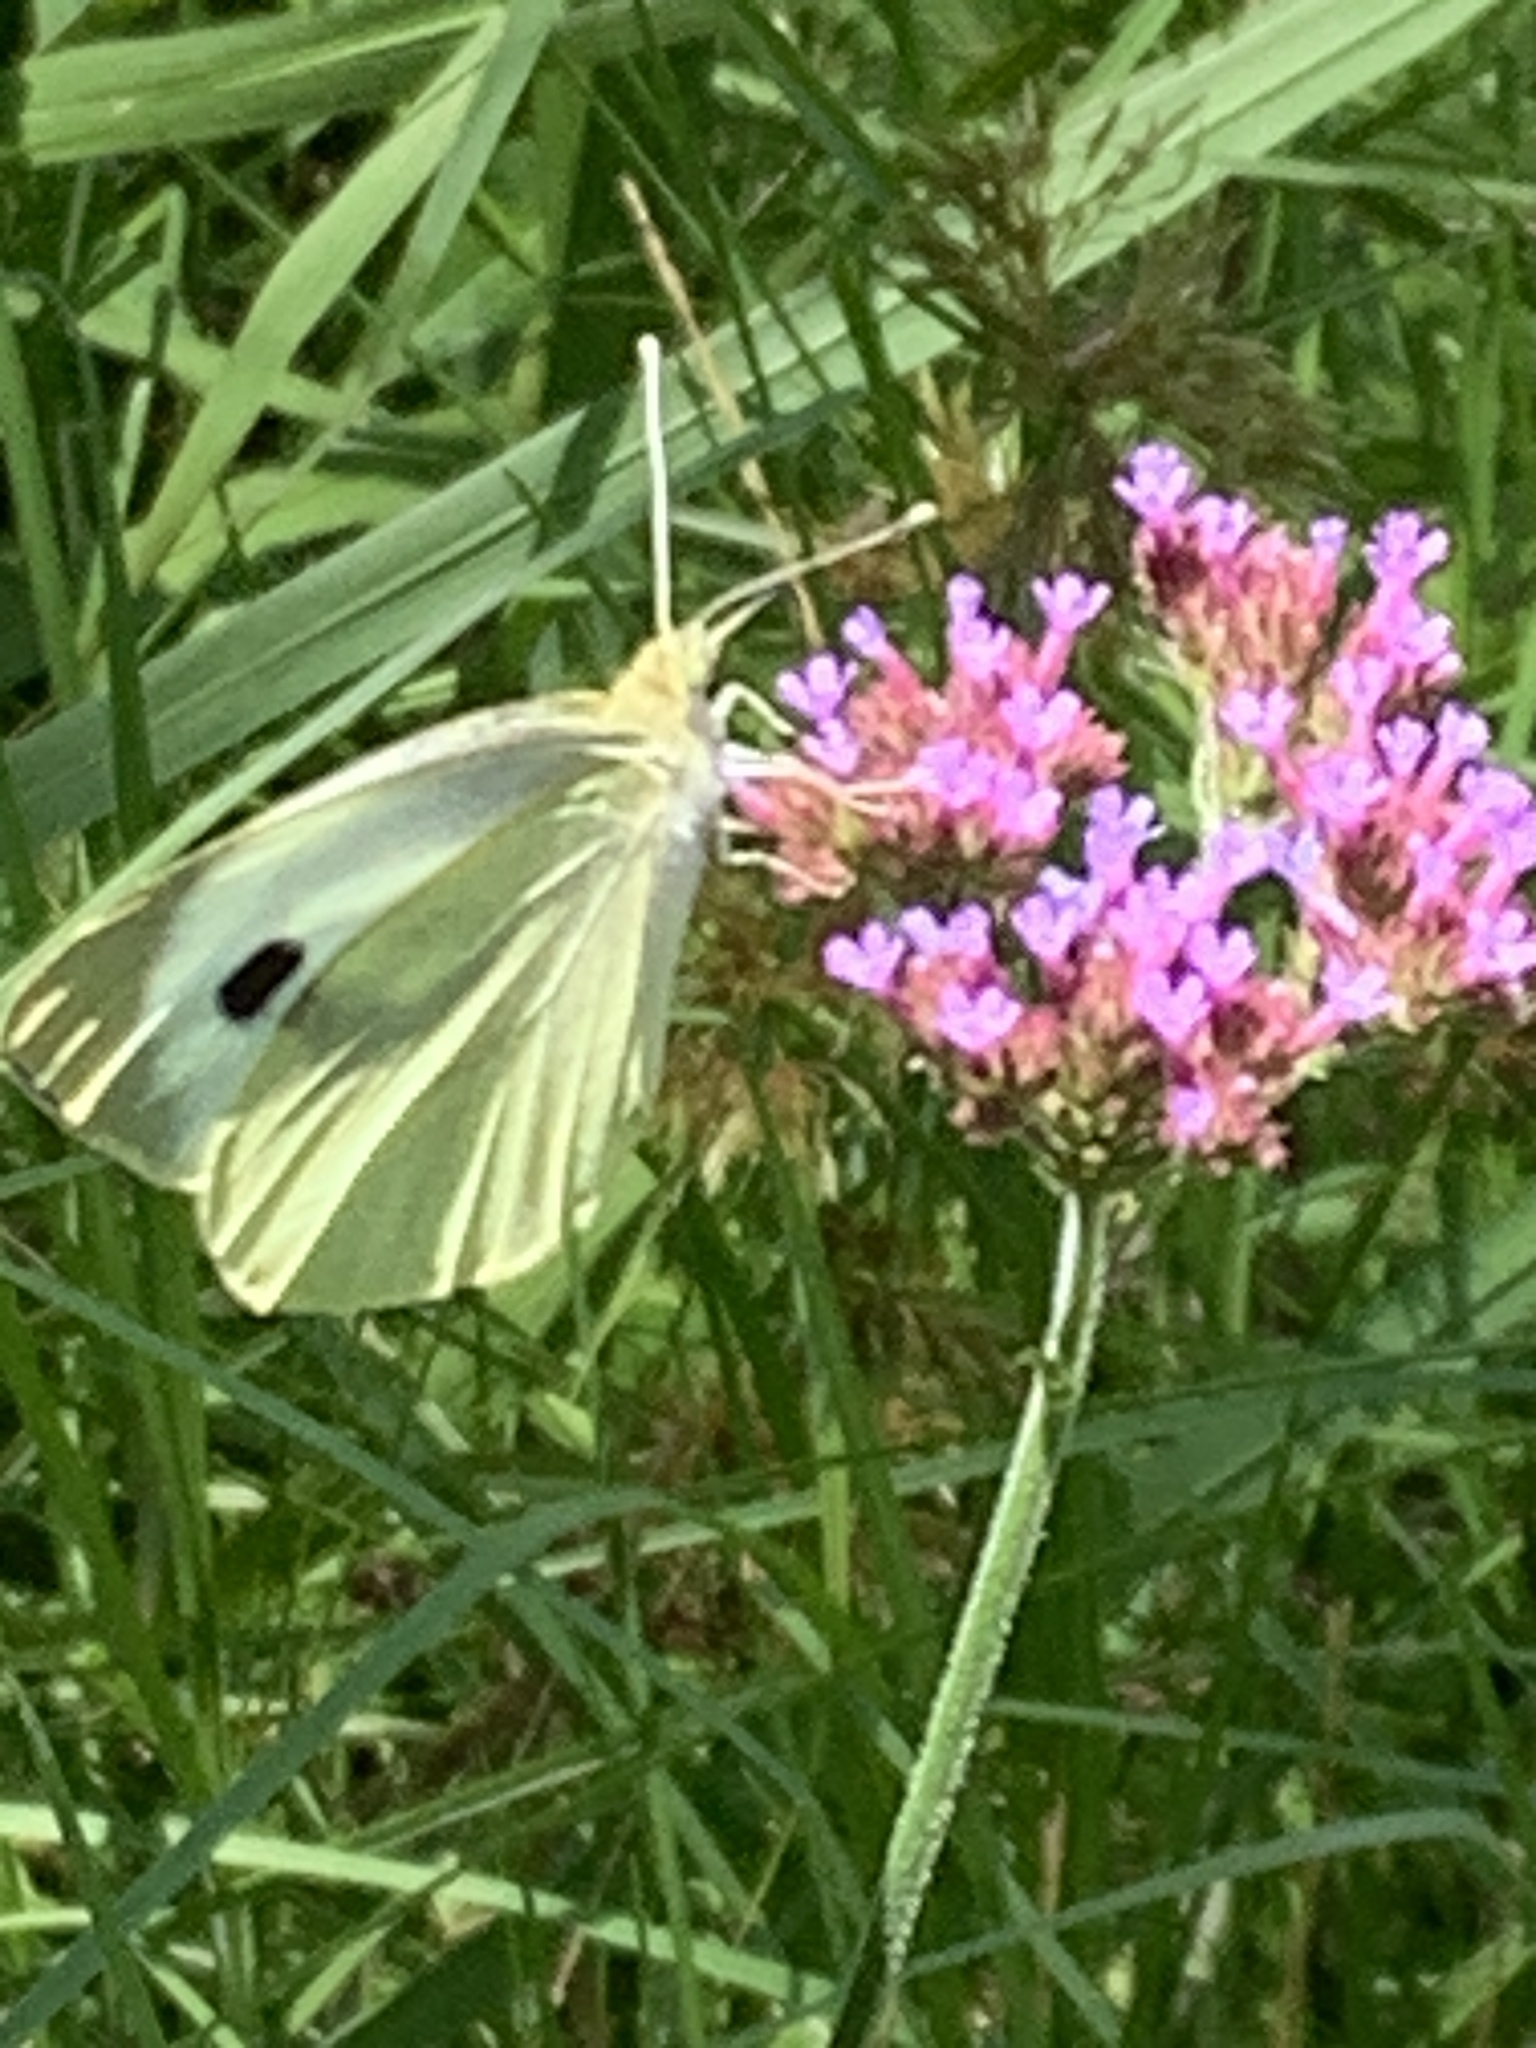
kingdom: Plantae
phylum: Tracheophyta
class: Magnoliopsida
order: Lamiales
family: Verbenaceae
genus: Verbena
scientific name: Verbena bonariensis
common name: Purpletop vervain
